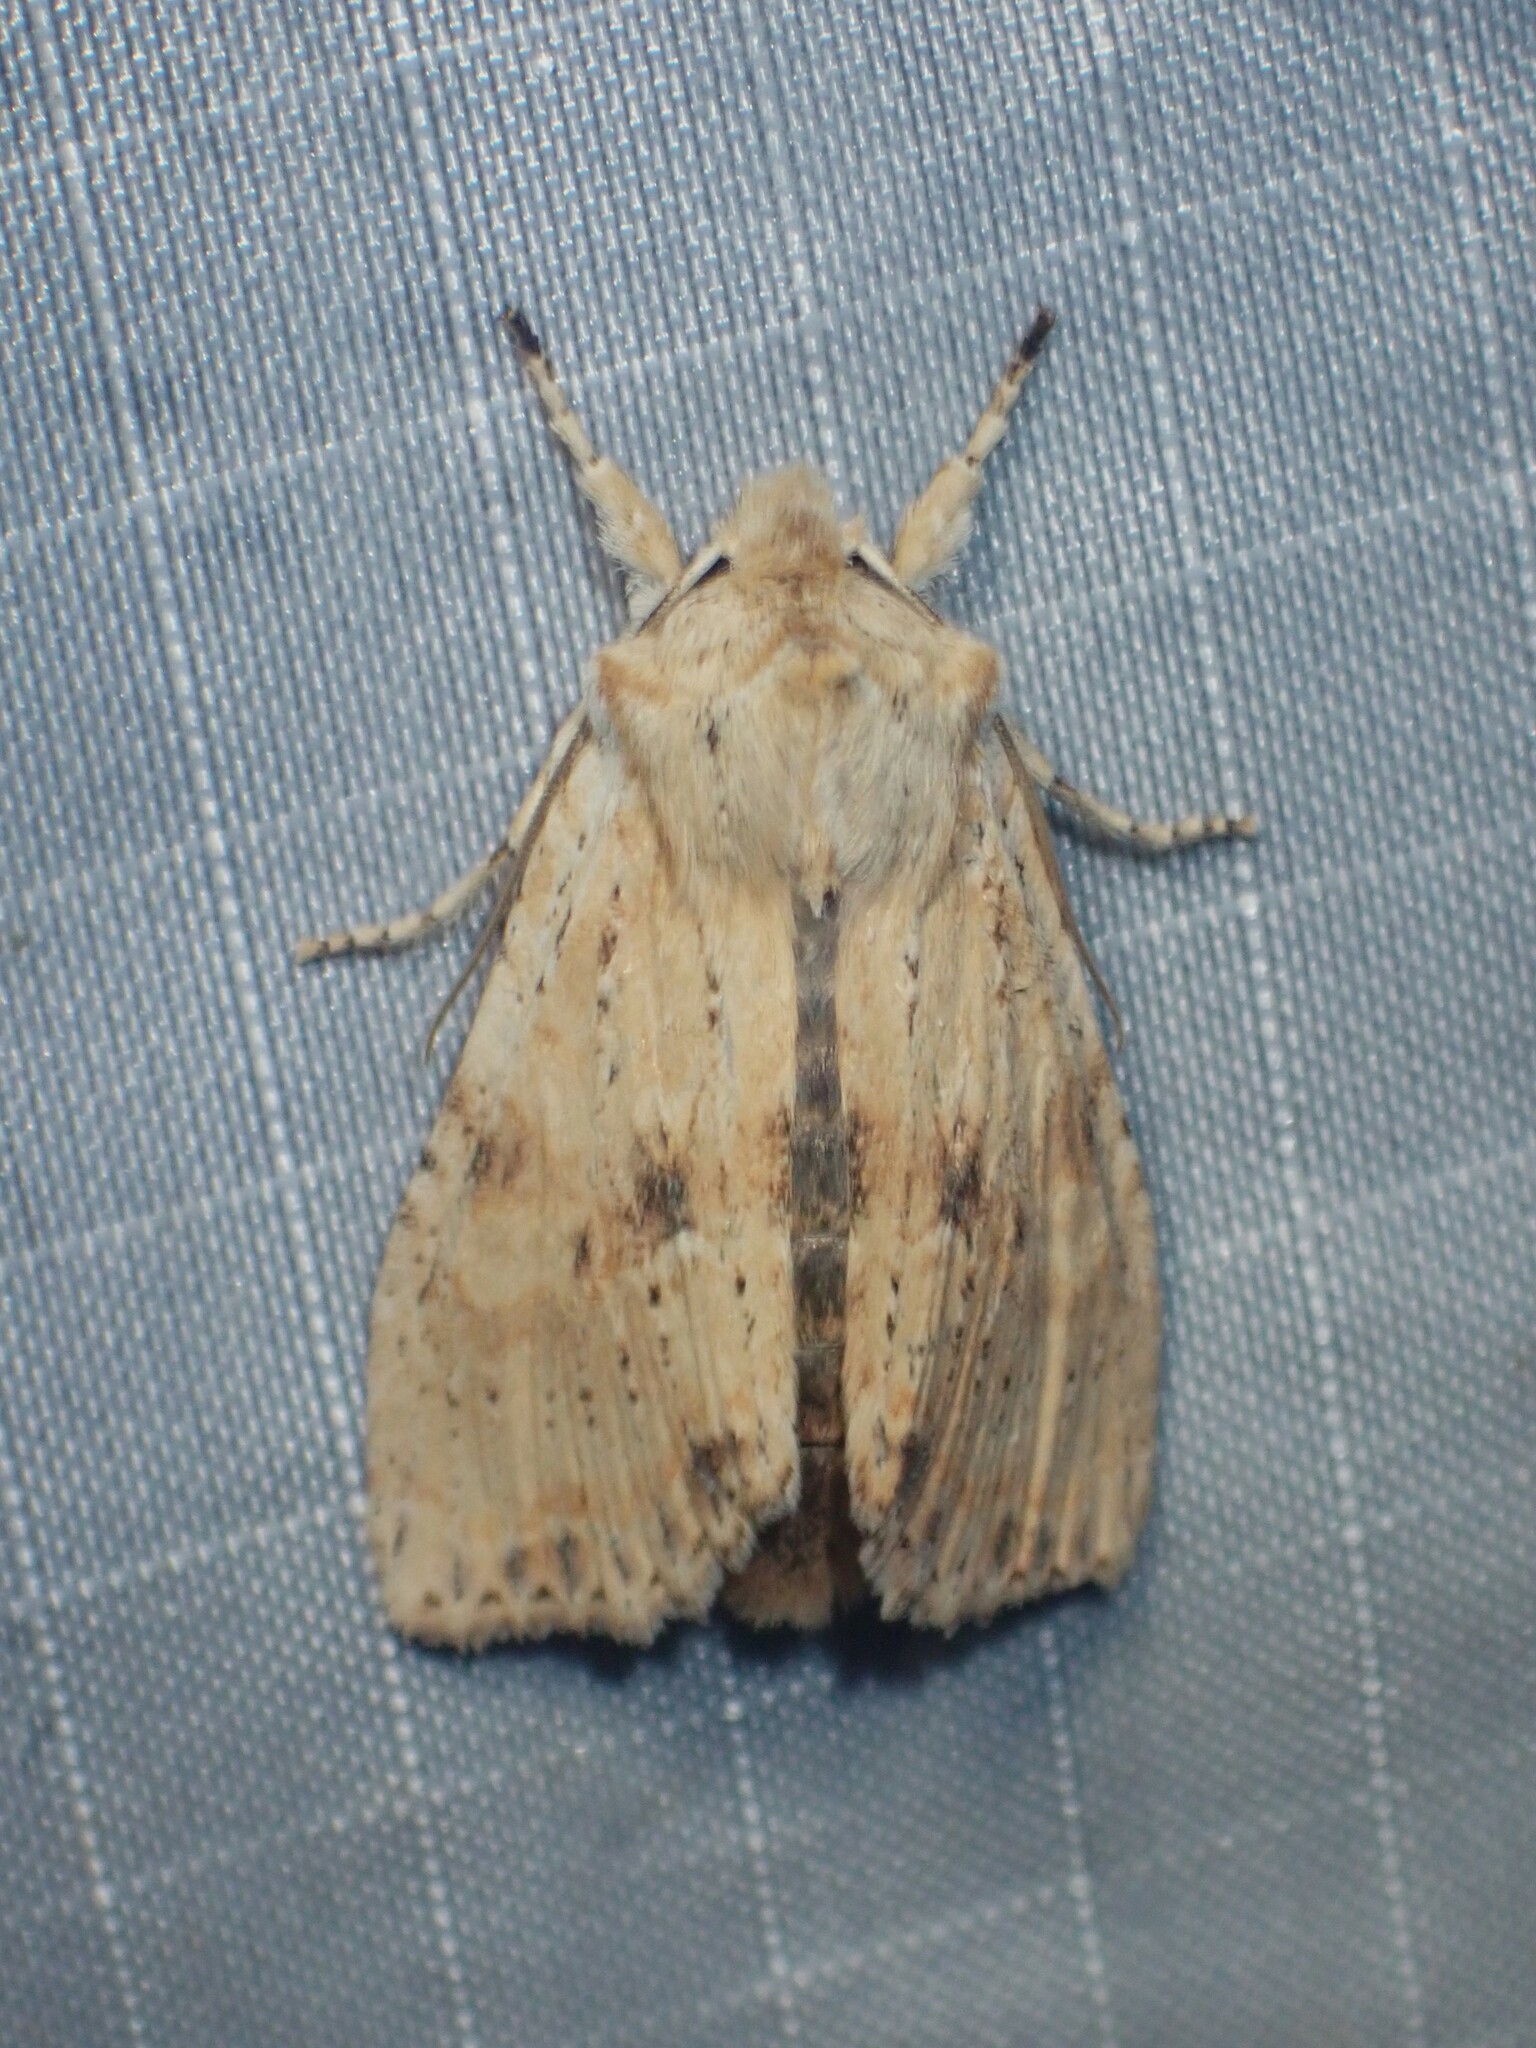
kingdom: Animalia
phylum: Arthropoda
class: Insecta
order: Lepidoptera
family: Noctuidae
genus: Lithophane
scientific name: Lithophane innominata
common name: Nameless pinion moth
